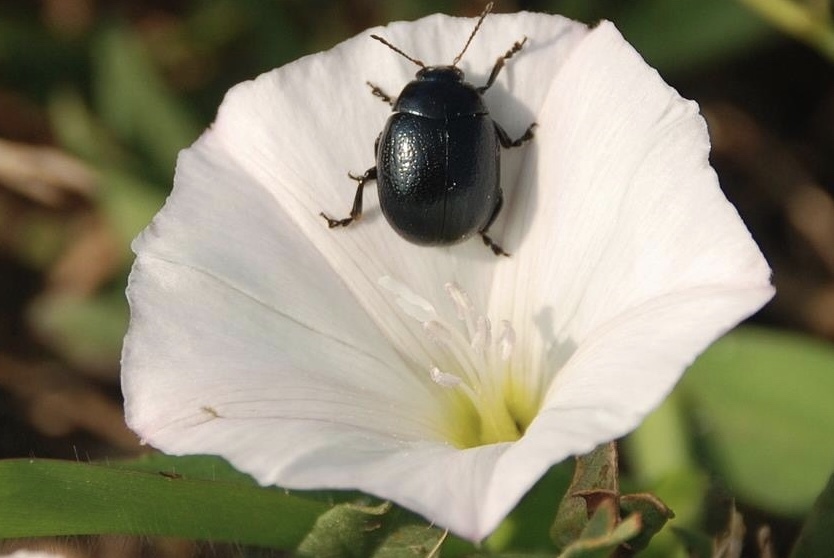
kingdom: Animalia
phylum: Arthropoda
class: Insecta
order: Coleoptera
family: Chrysomelidae
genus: Chrysolina
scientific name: Chrysolina haemoptera
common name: Plantain leaf beetle
